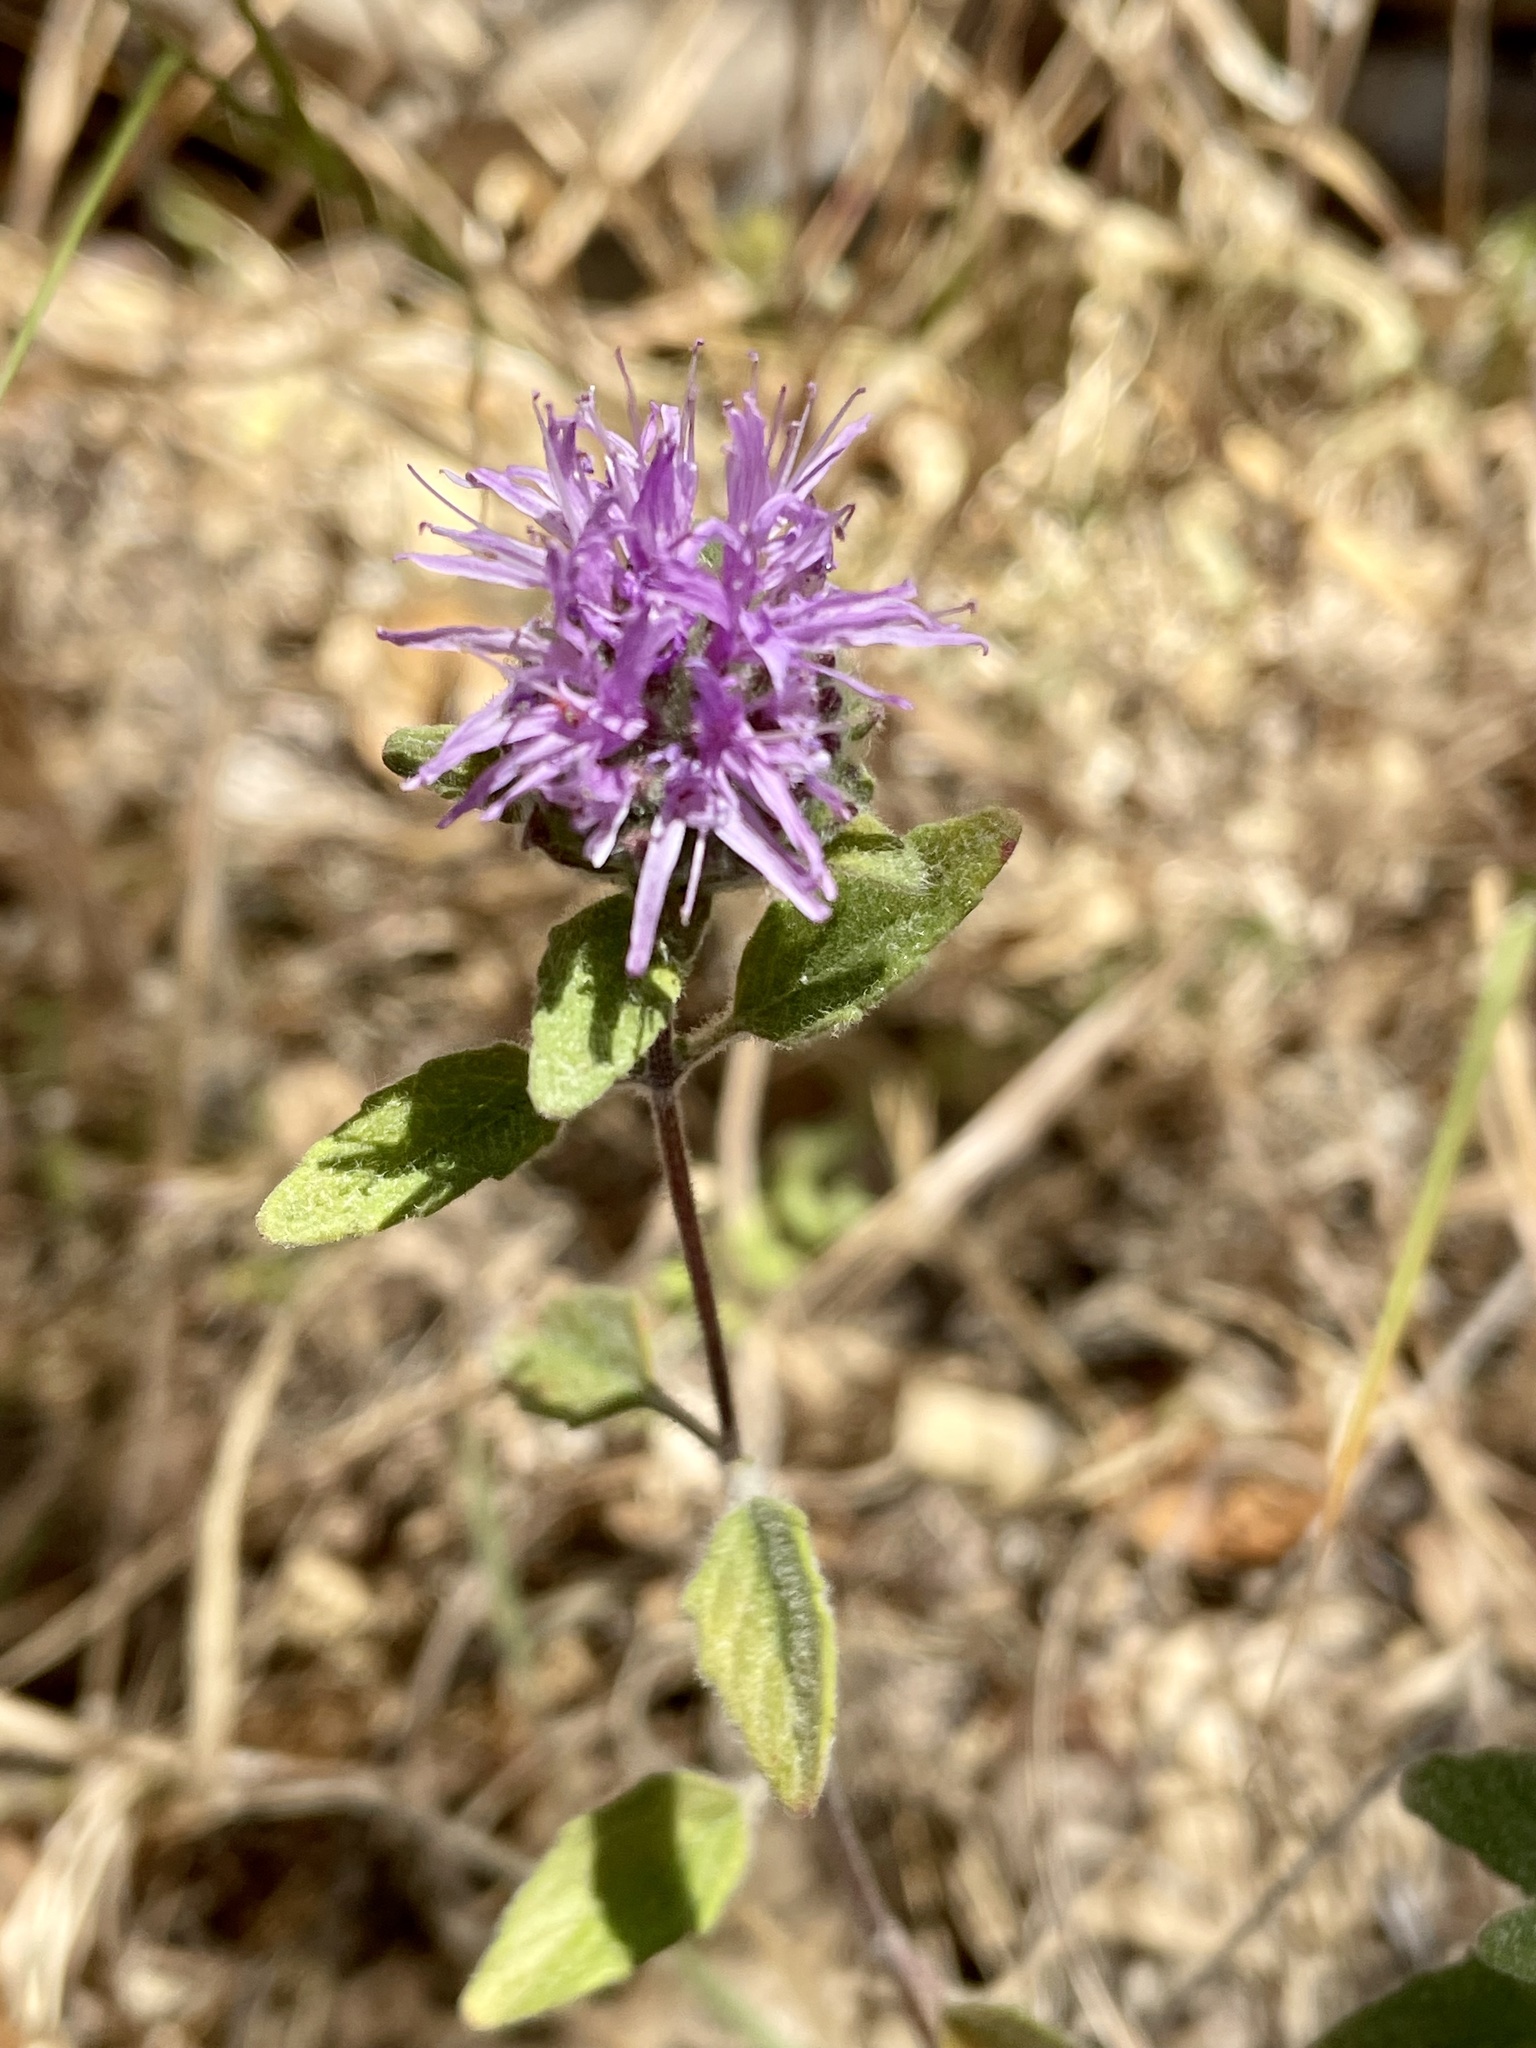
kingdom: Plantae
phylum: Tracheophyta
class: Magnoliopsida
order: Lamiales
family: Lamiaceae
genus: Monardella
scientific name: Monardella odoratissima
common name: Pacific monardella
